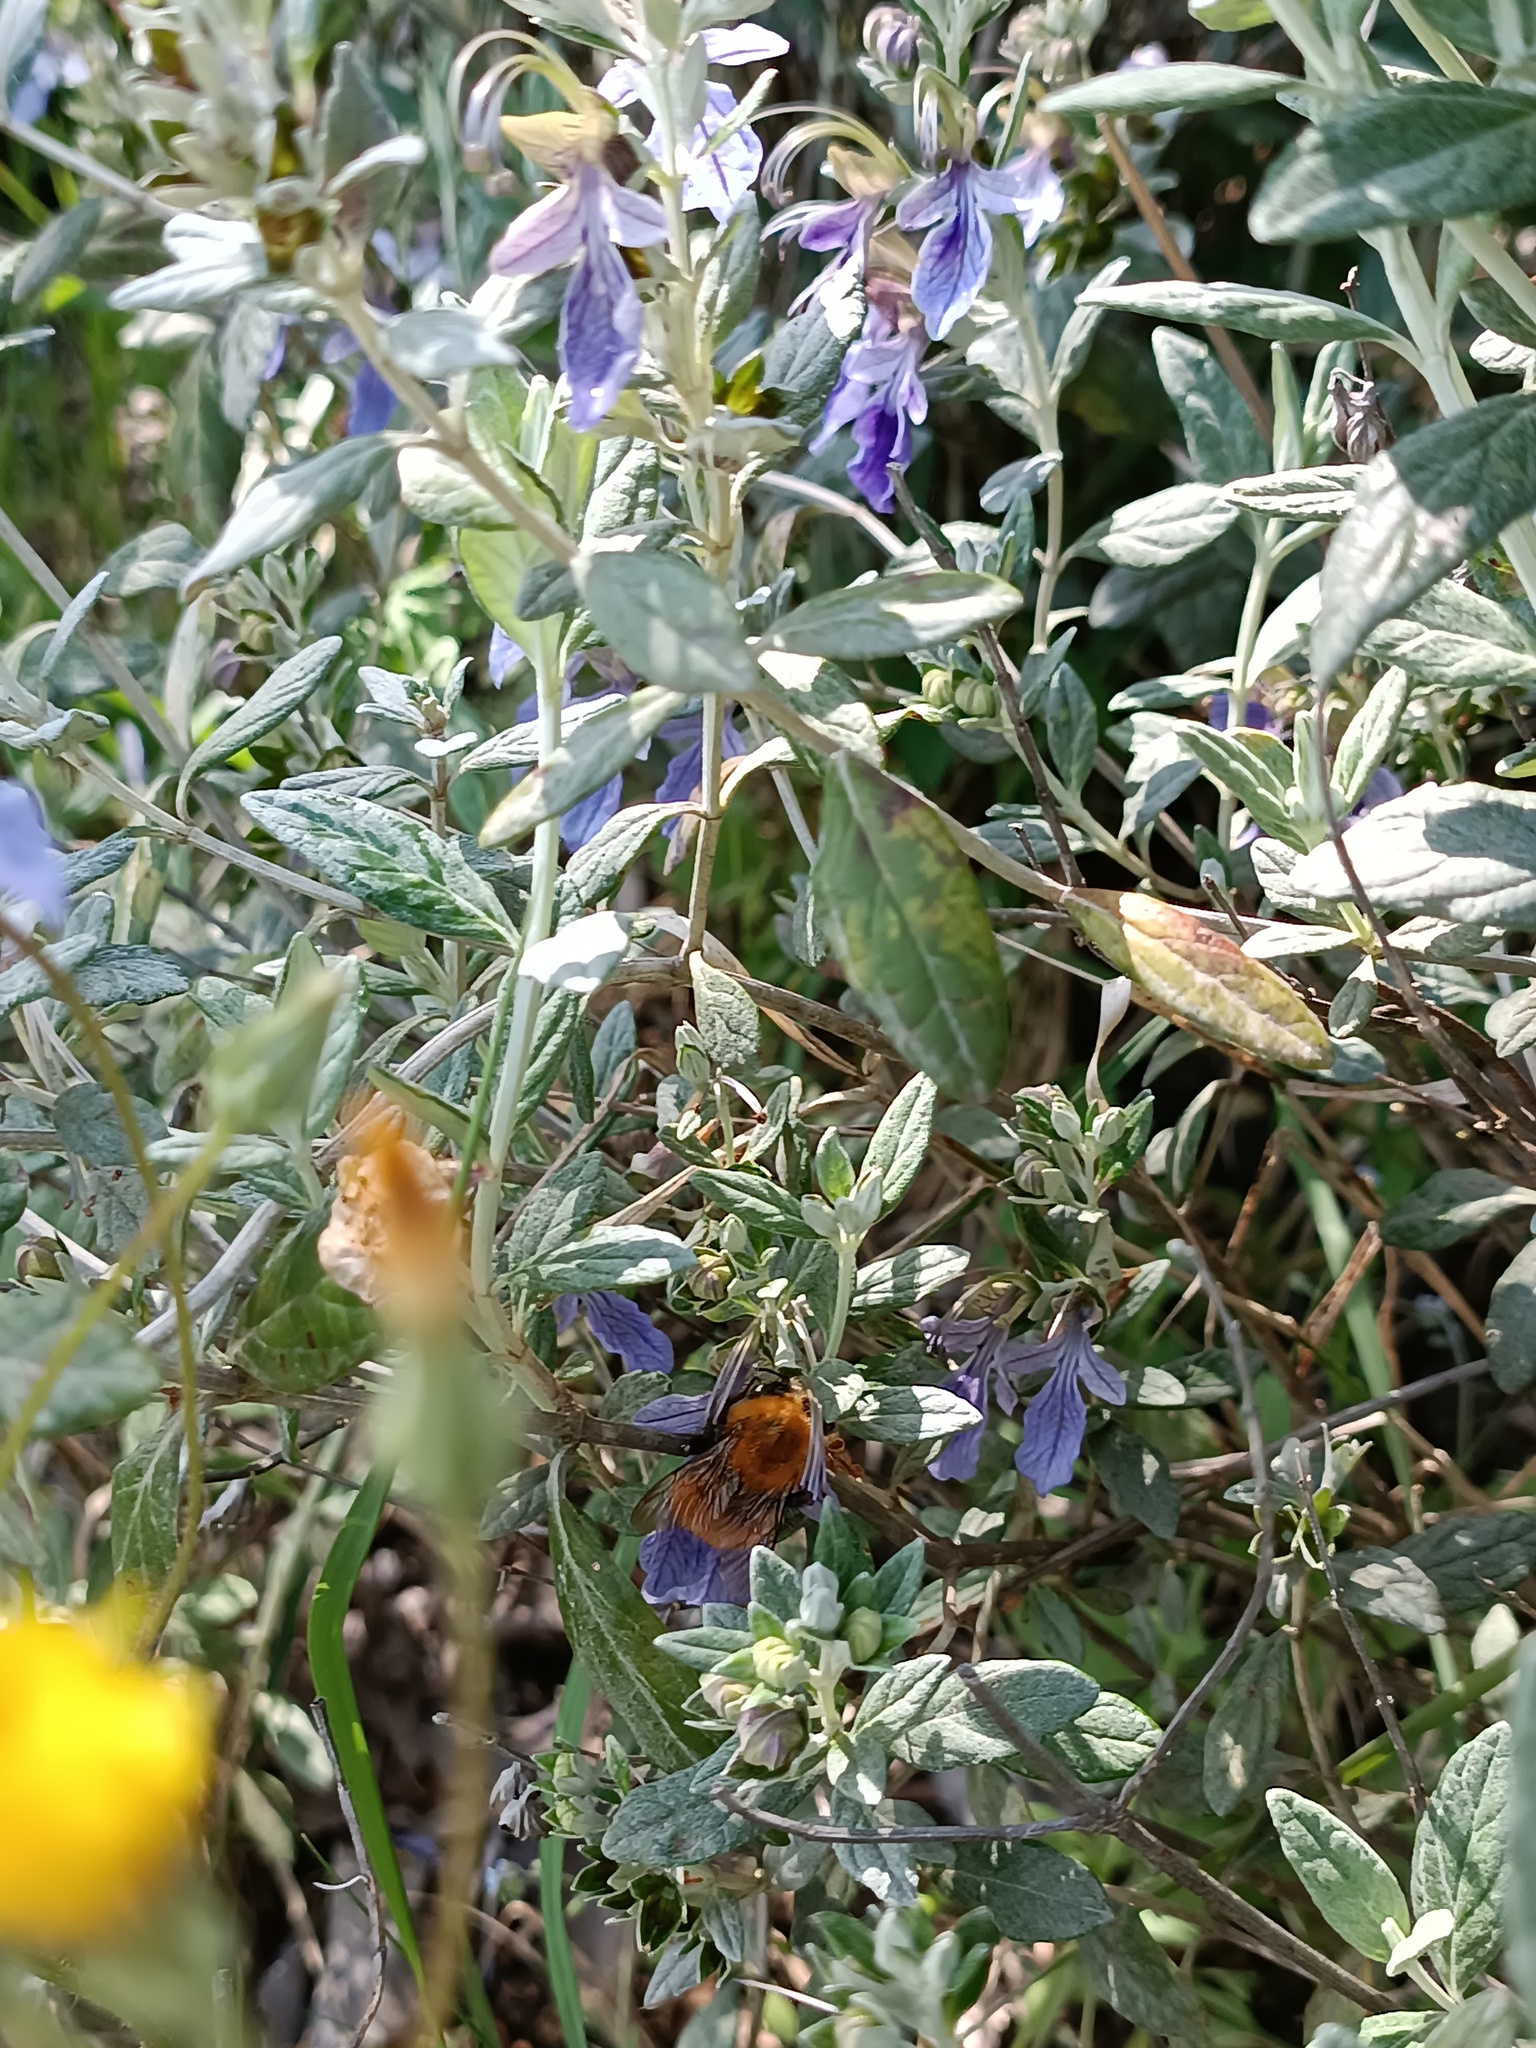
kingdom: Animalia
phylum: Arthropoda
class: Insecta
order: Hymenoptera
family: Apidae
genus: Bombus
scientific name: Bombus pascuorum
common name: Common carder bee
